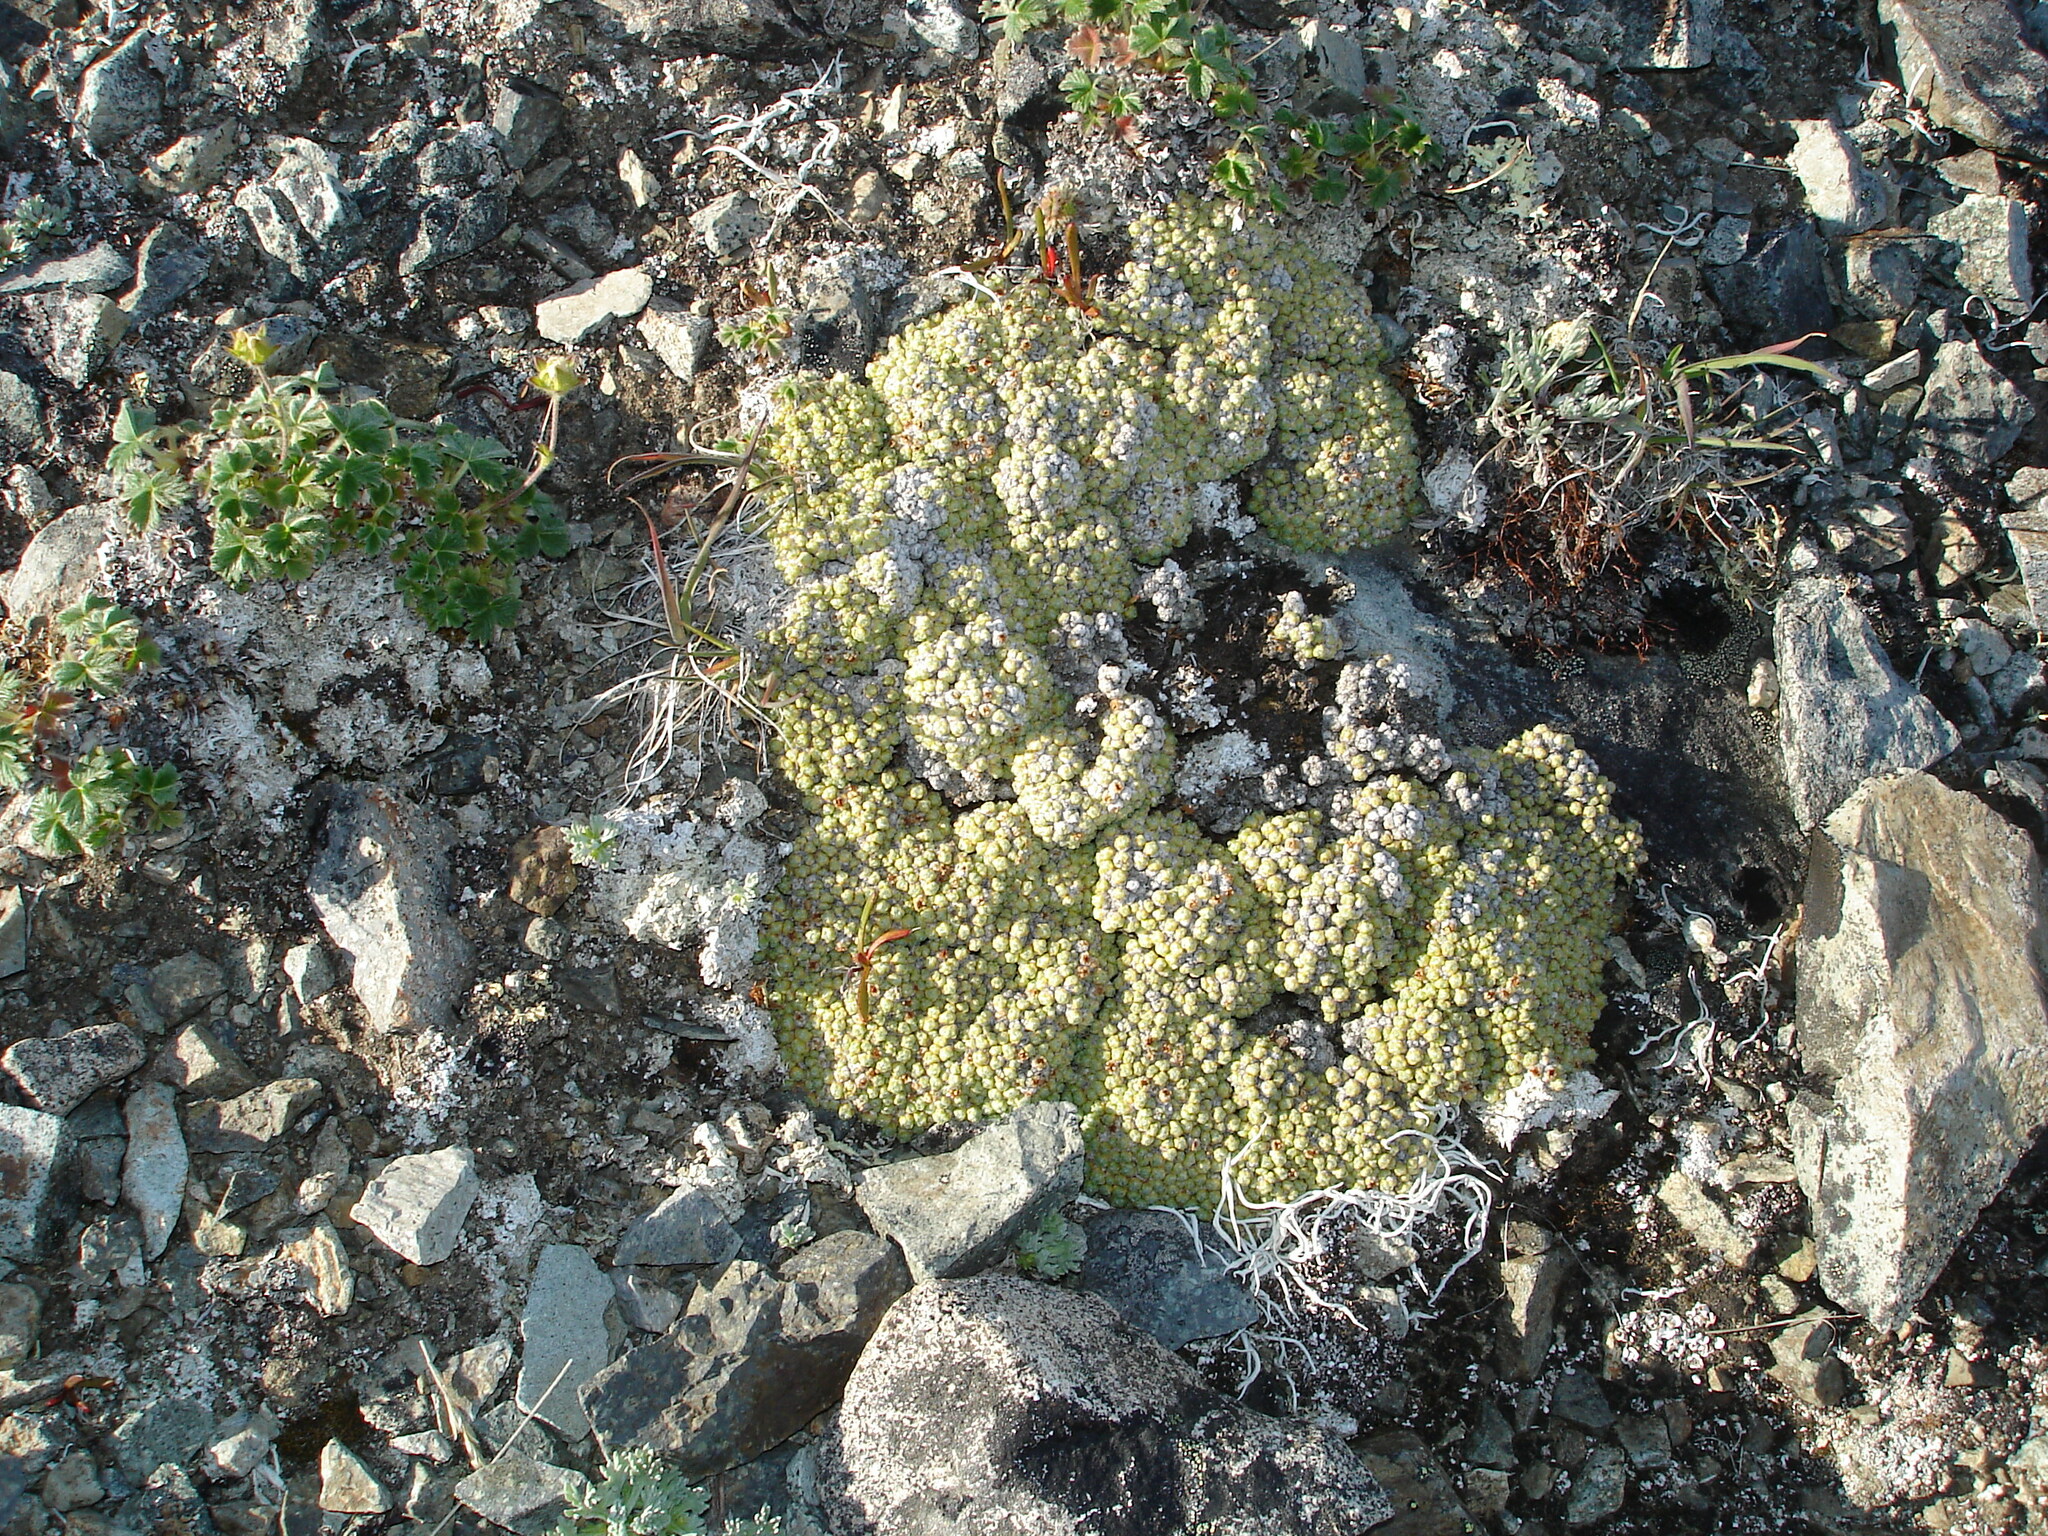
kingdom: Plantae
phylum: Tracheophyta
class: Magnoliopsida
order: Saxifragales
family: Saxifragaceae
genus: Saxifraga
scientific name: Saxifraga eschscholtzii
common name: Eschscholtz's saxifrage
